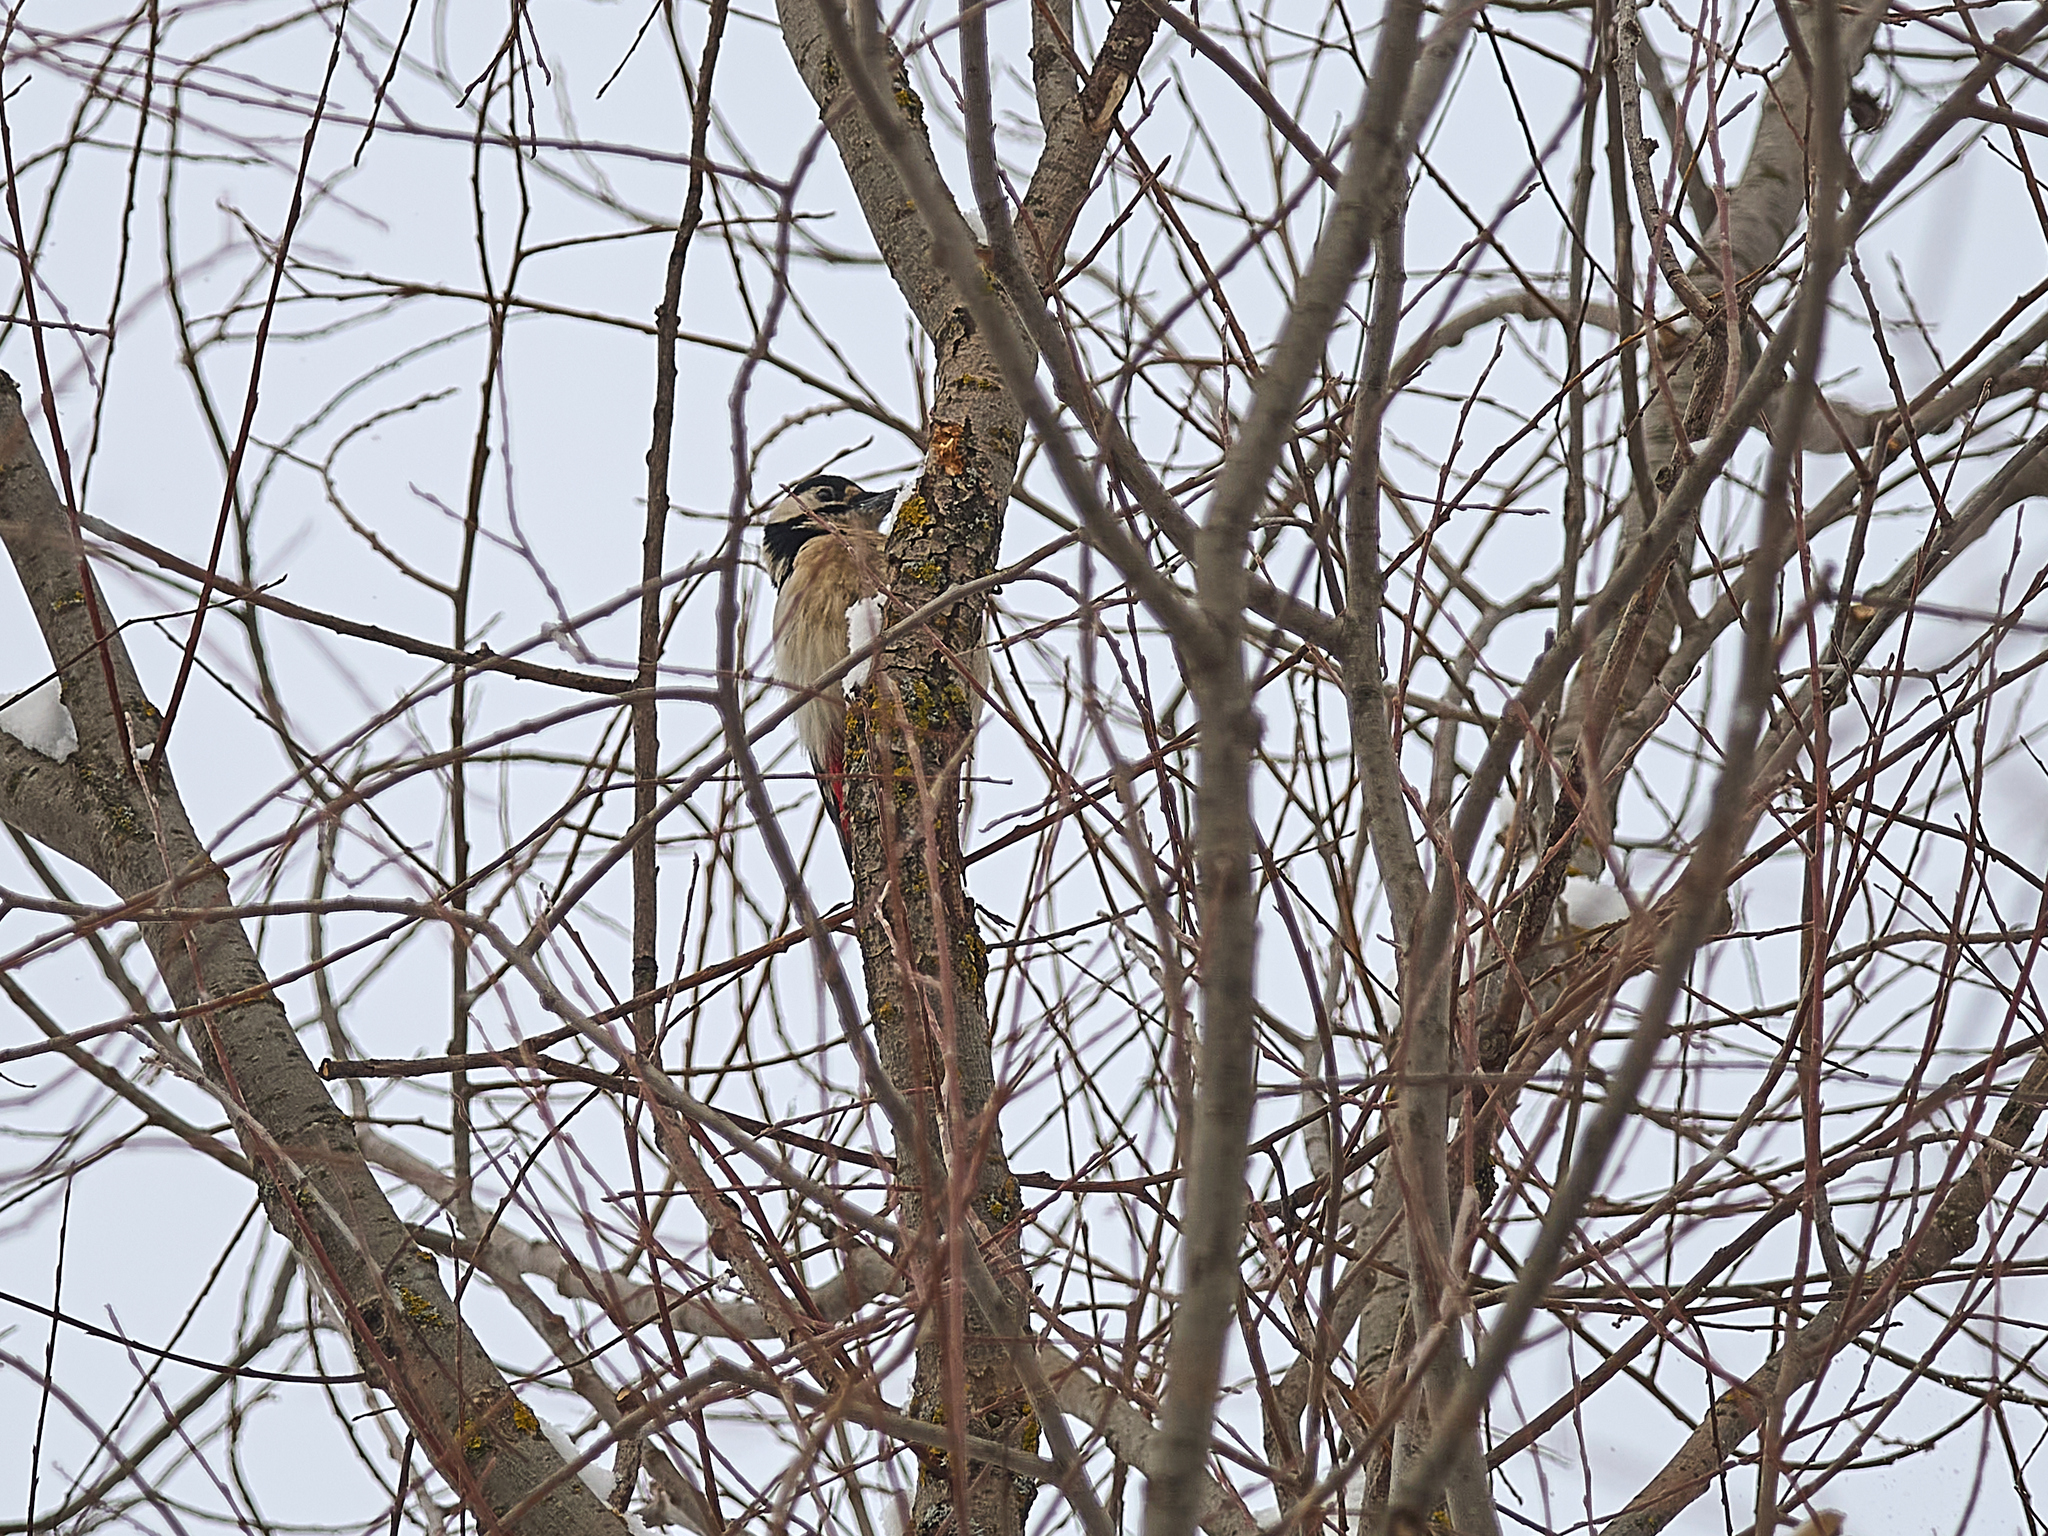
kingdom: Animalia
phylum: Chordata
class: Aves
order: Piciformes
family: Picidae
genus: Dendrocopos
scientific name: Dendrocopos major
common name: Great spotted woodpecker
